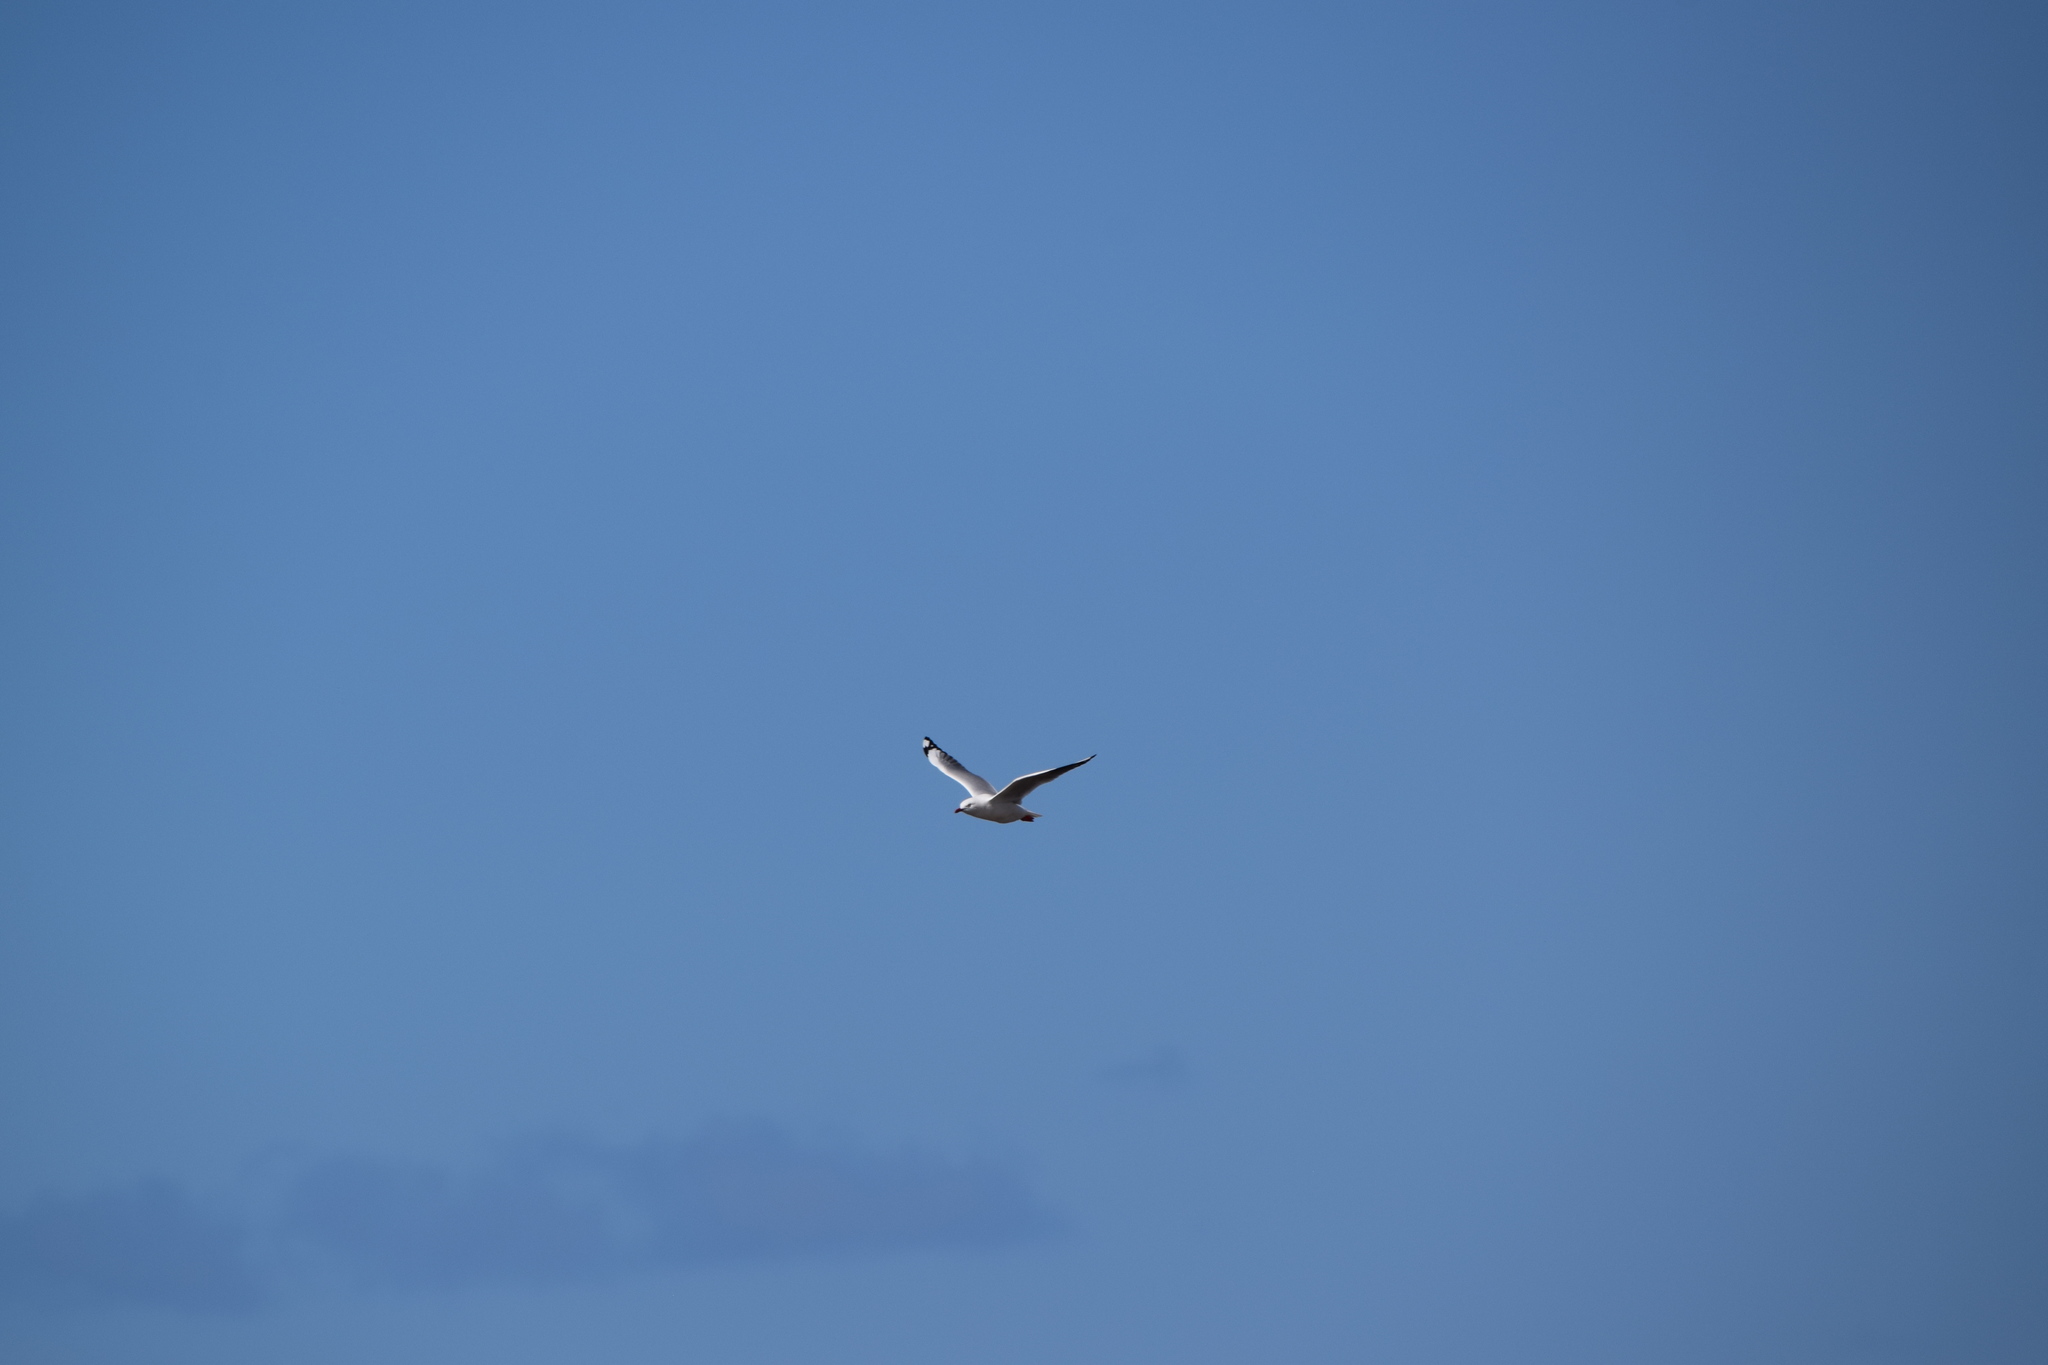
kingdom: Animalia
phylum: Chordata
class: Aves
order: Charadriiformes
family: Laridae
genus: Chroicocephalus
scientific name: Chroicocephalus novaehollandiae
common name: Silver gull
